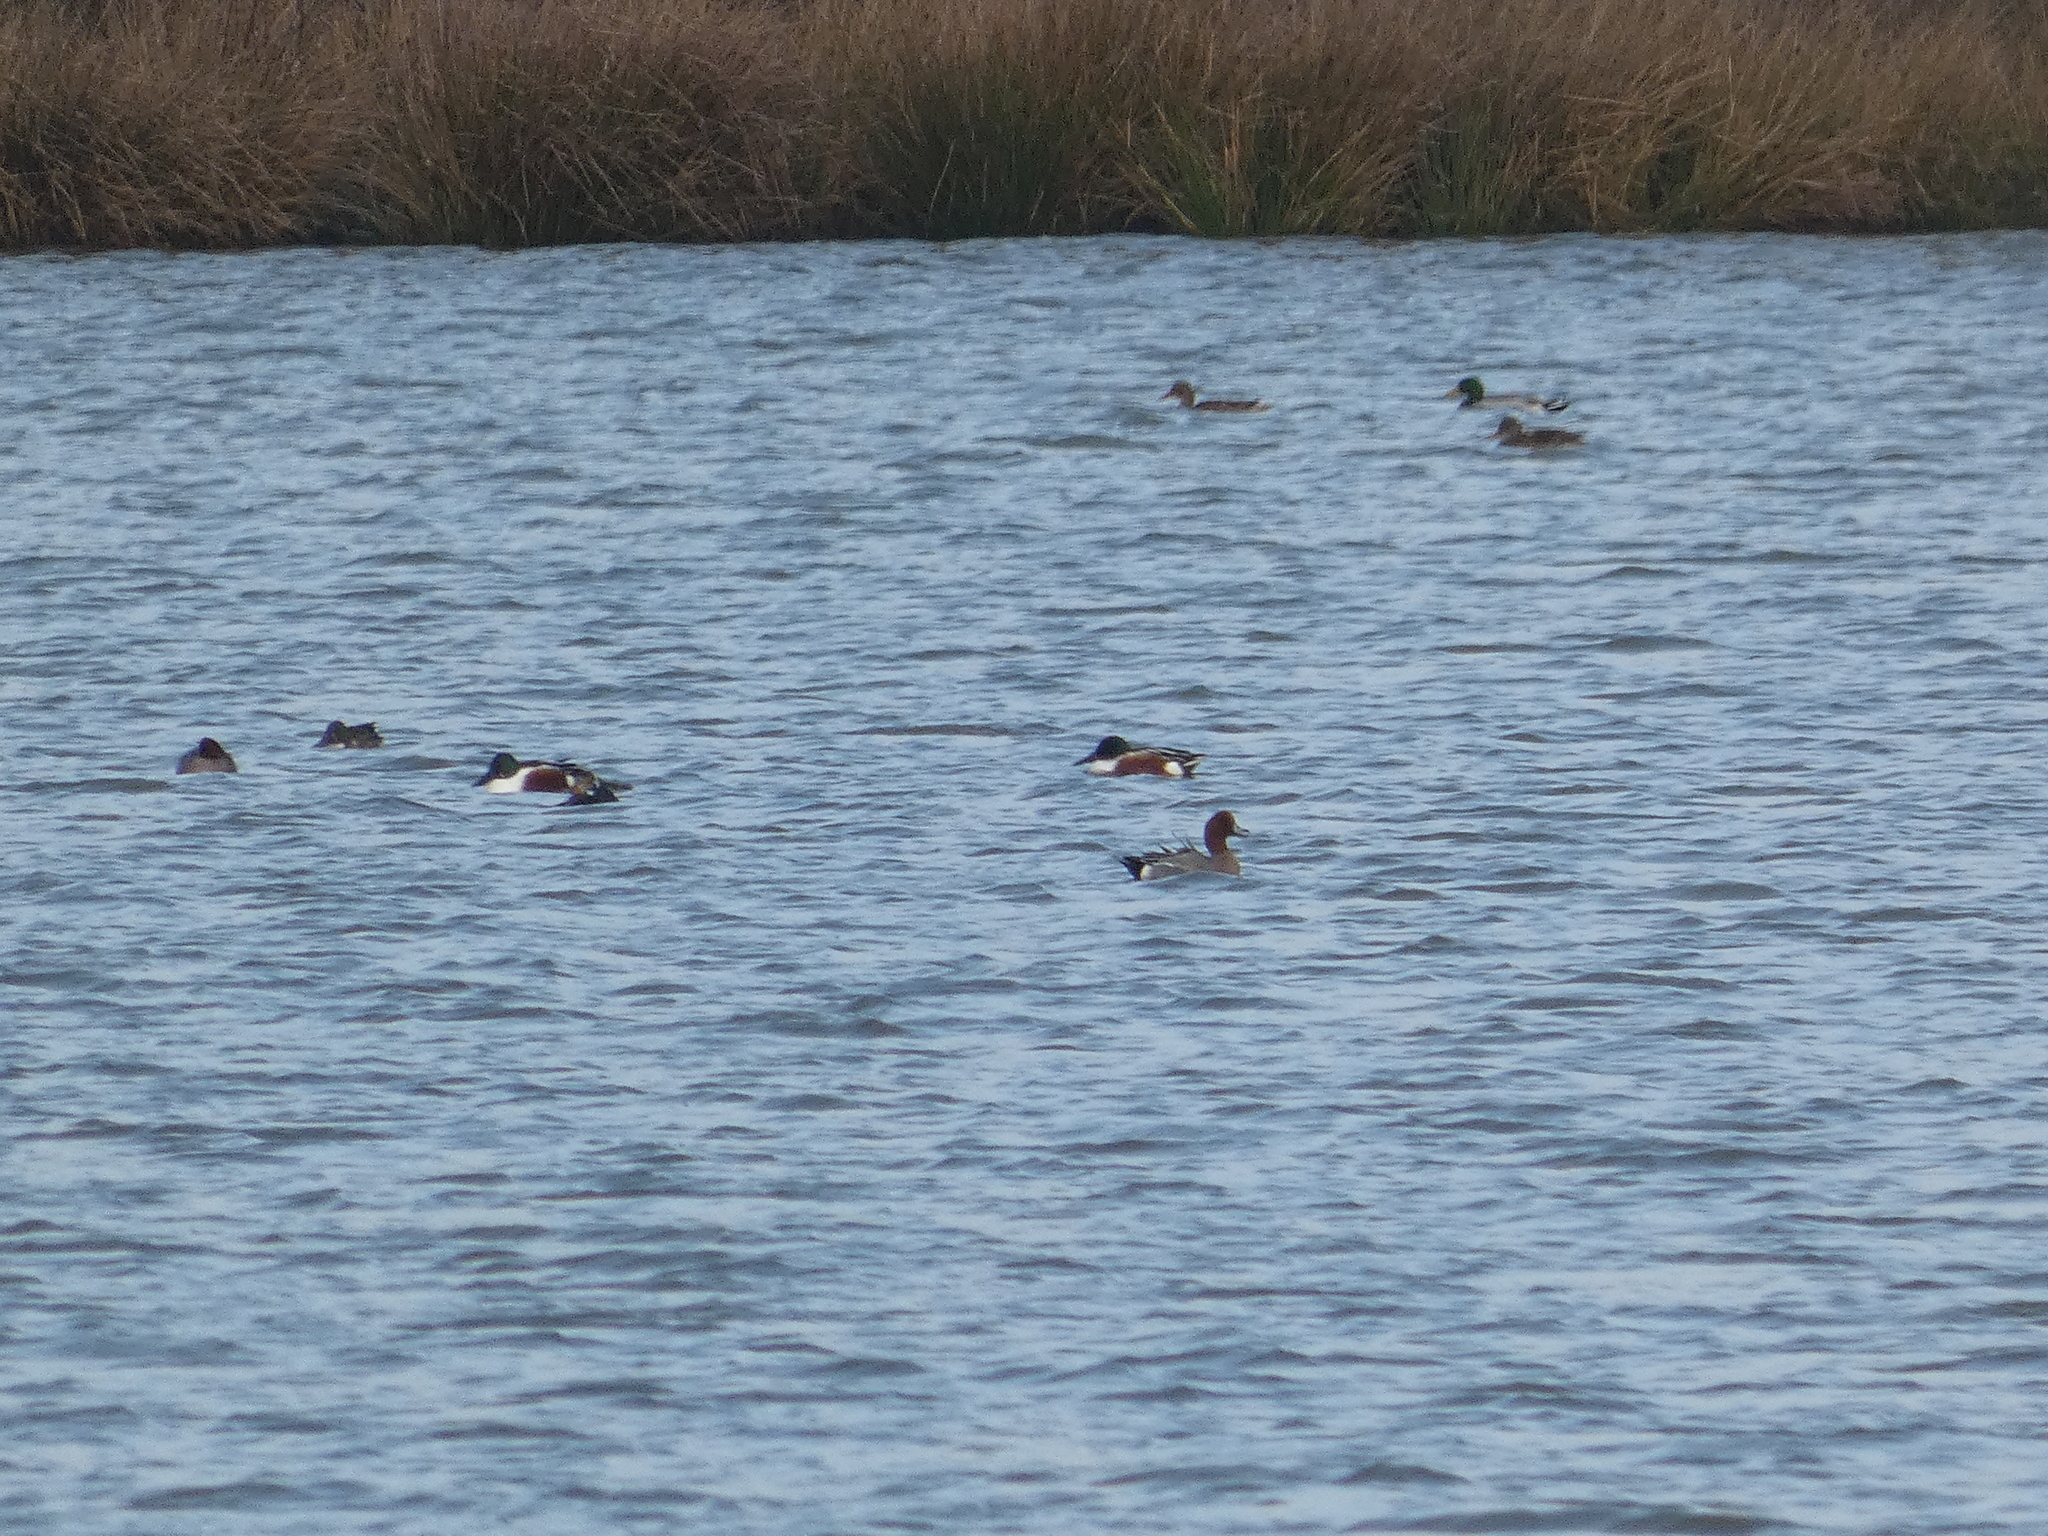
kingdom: Animalia
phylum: Chordata
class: Aves
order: Anseriformes
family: Anatidae
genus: Anas
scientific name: Anas platyrhynchos
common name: Mallard
